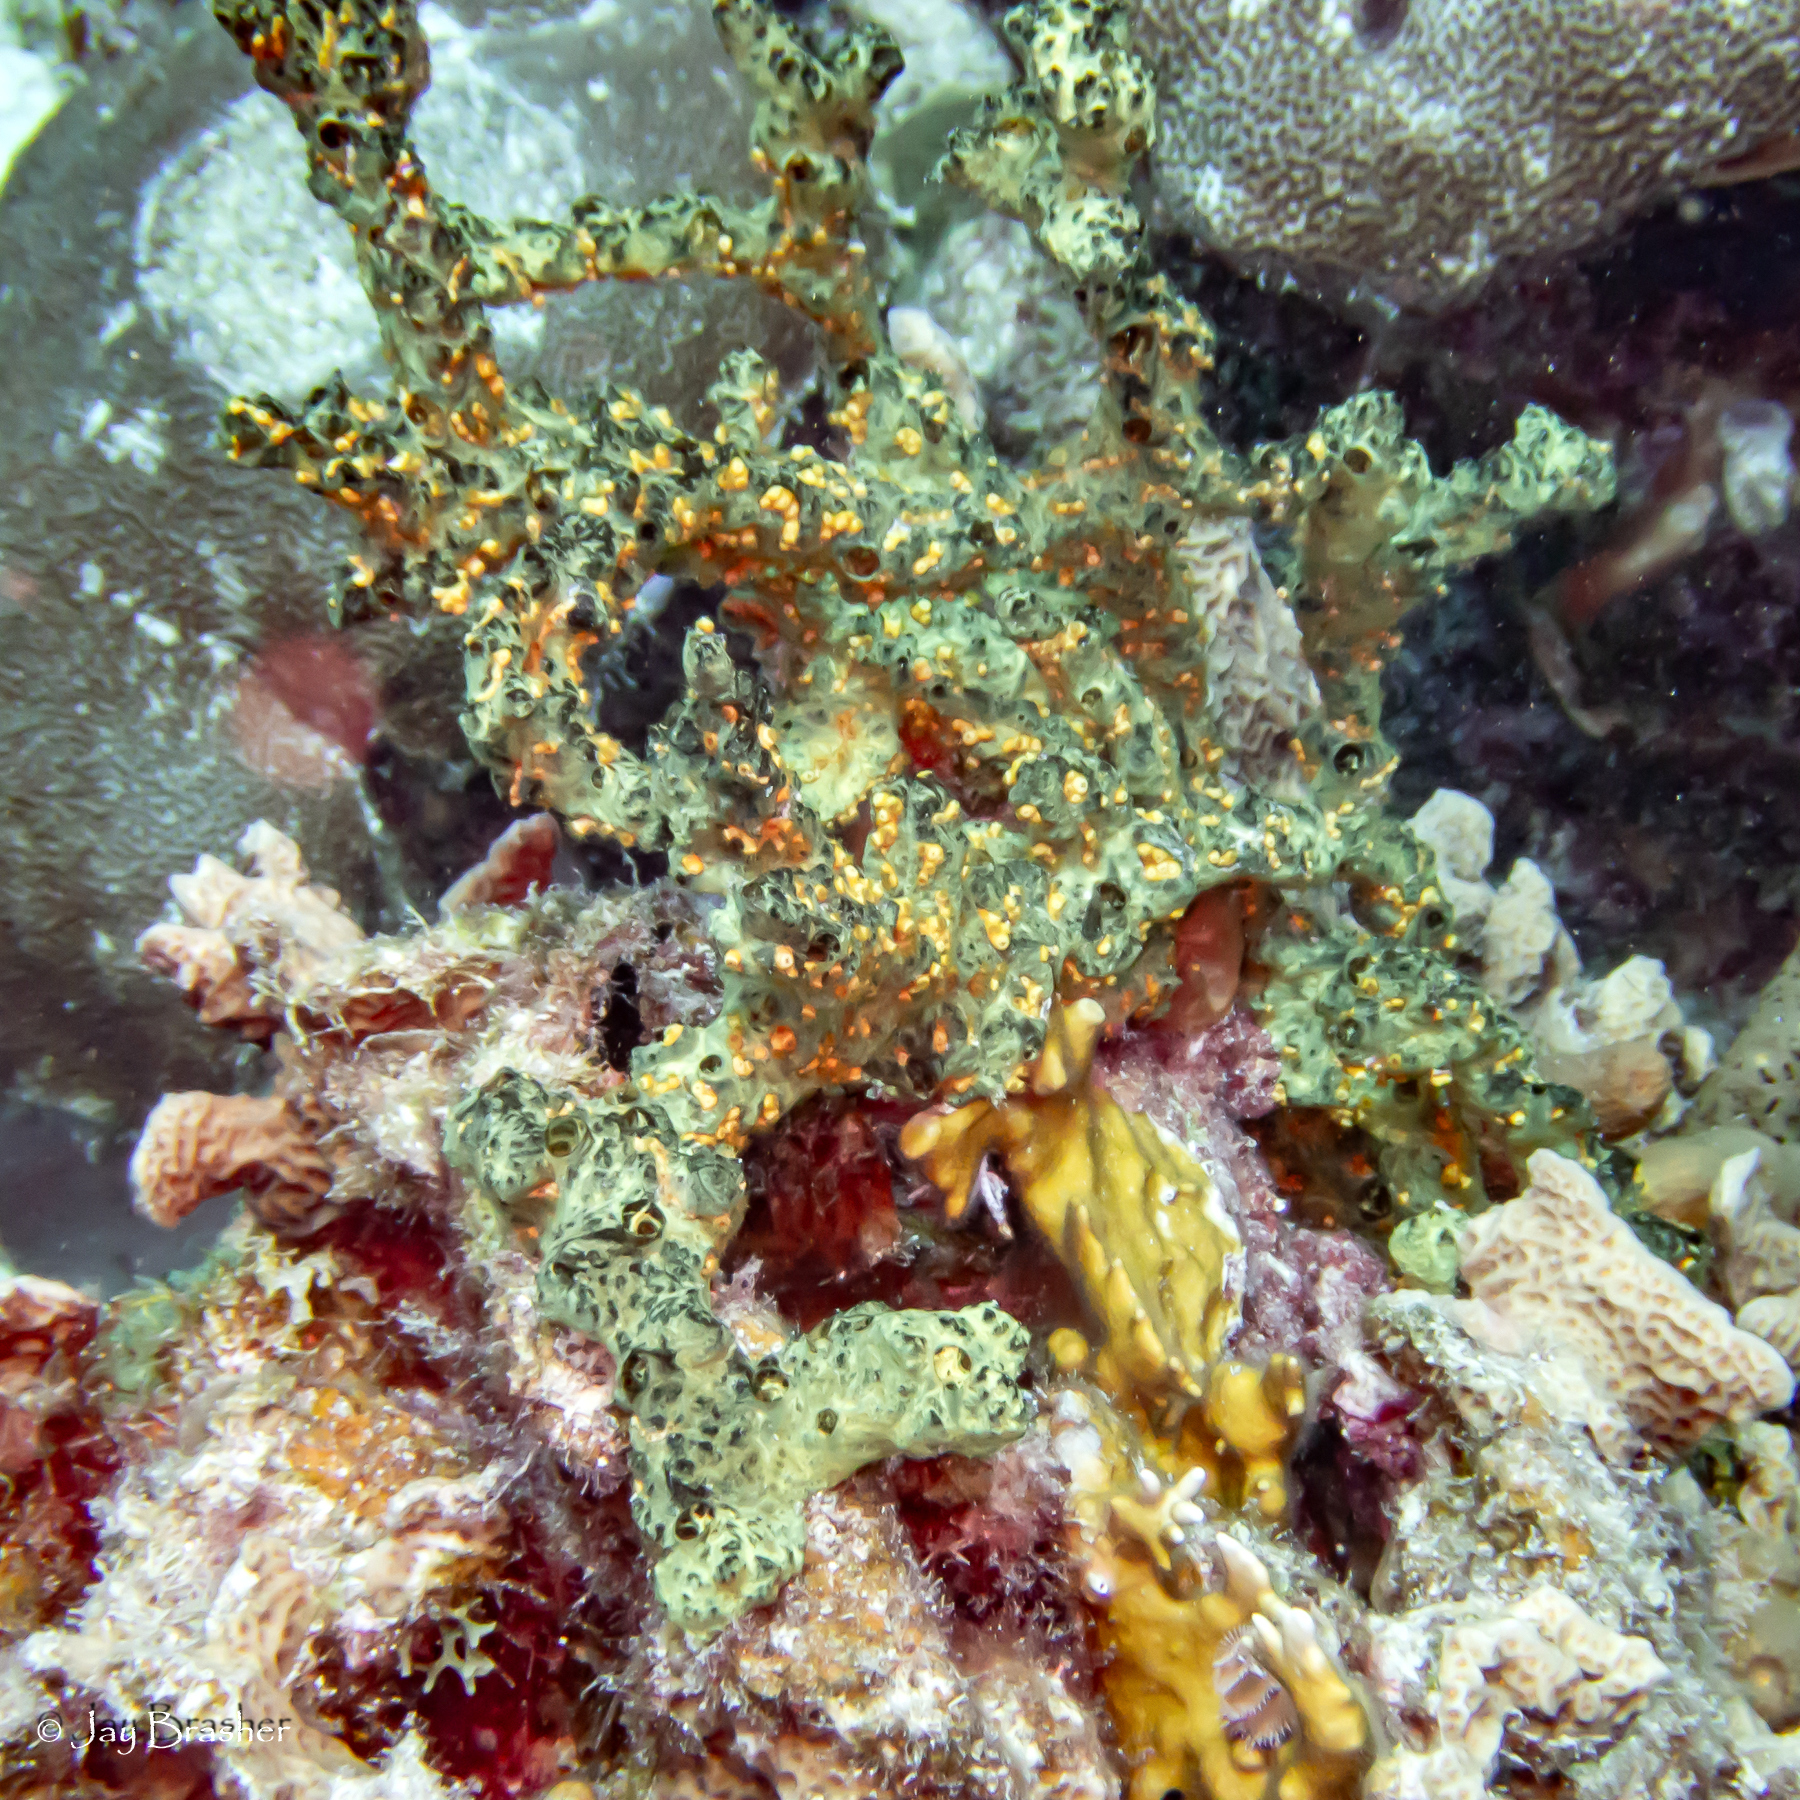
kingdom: Animalia
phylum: Porifera
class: Demospongiae
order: Poecilosclerida
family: Iotrochotidae
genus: Iotrochota
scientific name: Iotrochota birotulata
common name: Purple bleeding sponge
